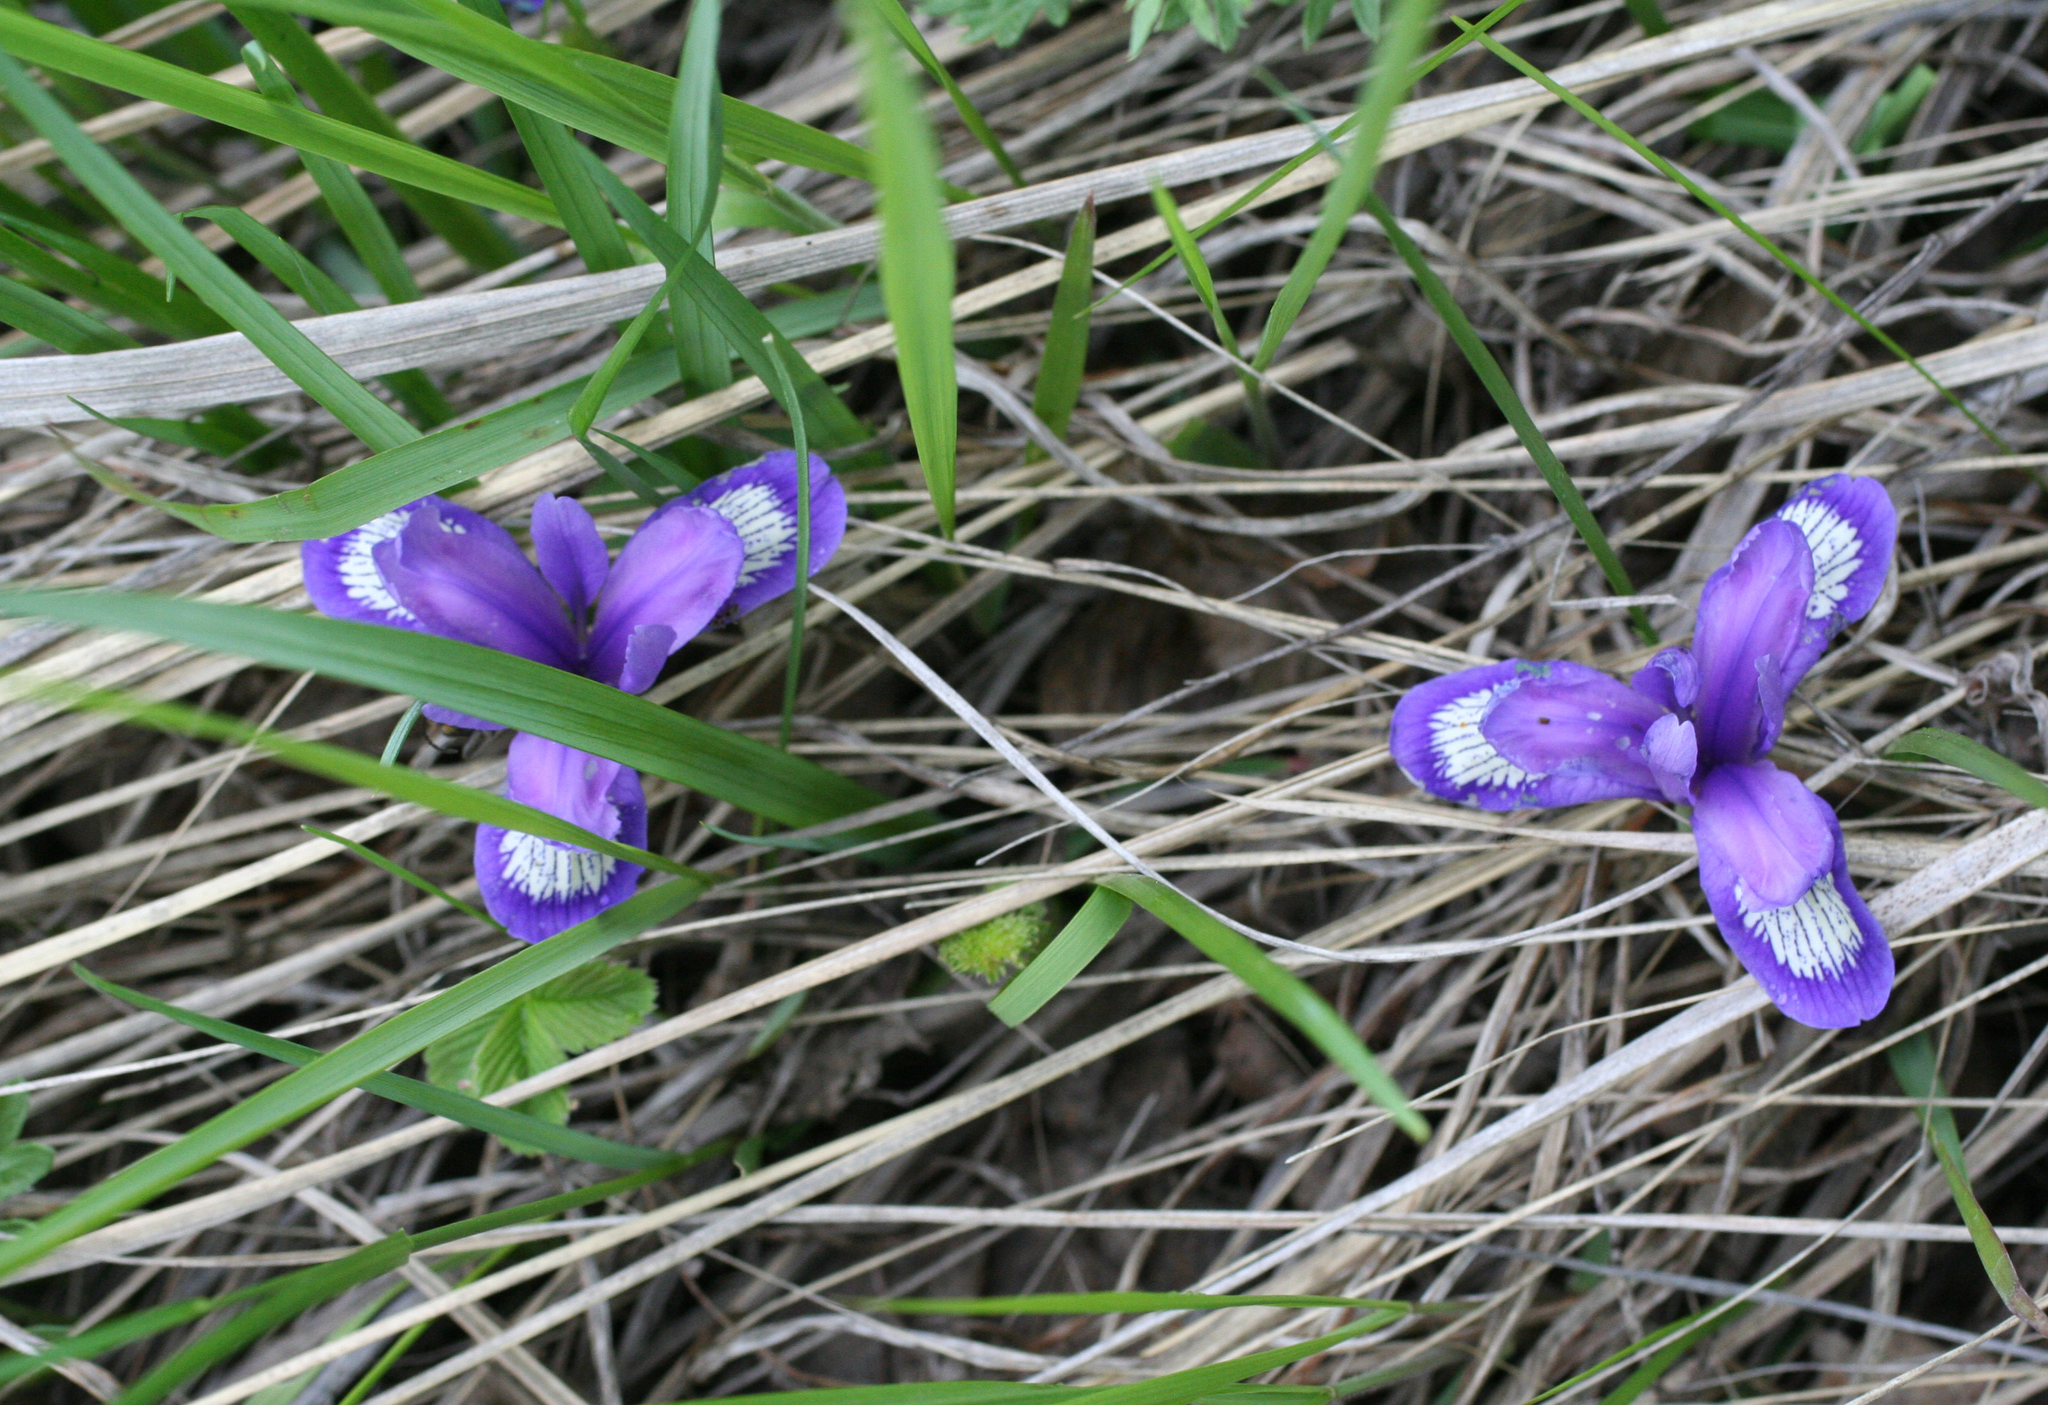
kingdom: Plantae
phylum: Tracheophyta
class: Liliopsida
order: Asparagales
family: Iridaceae
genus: Iris
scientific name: Iris ruthenica
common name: Purple-bract iris
